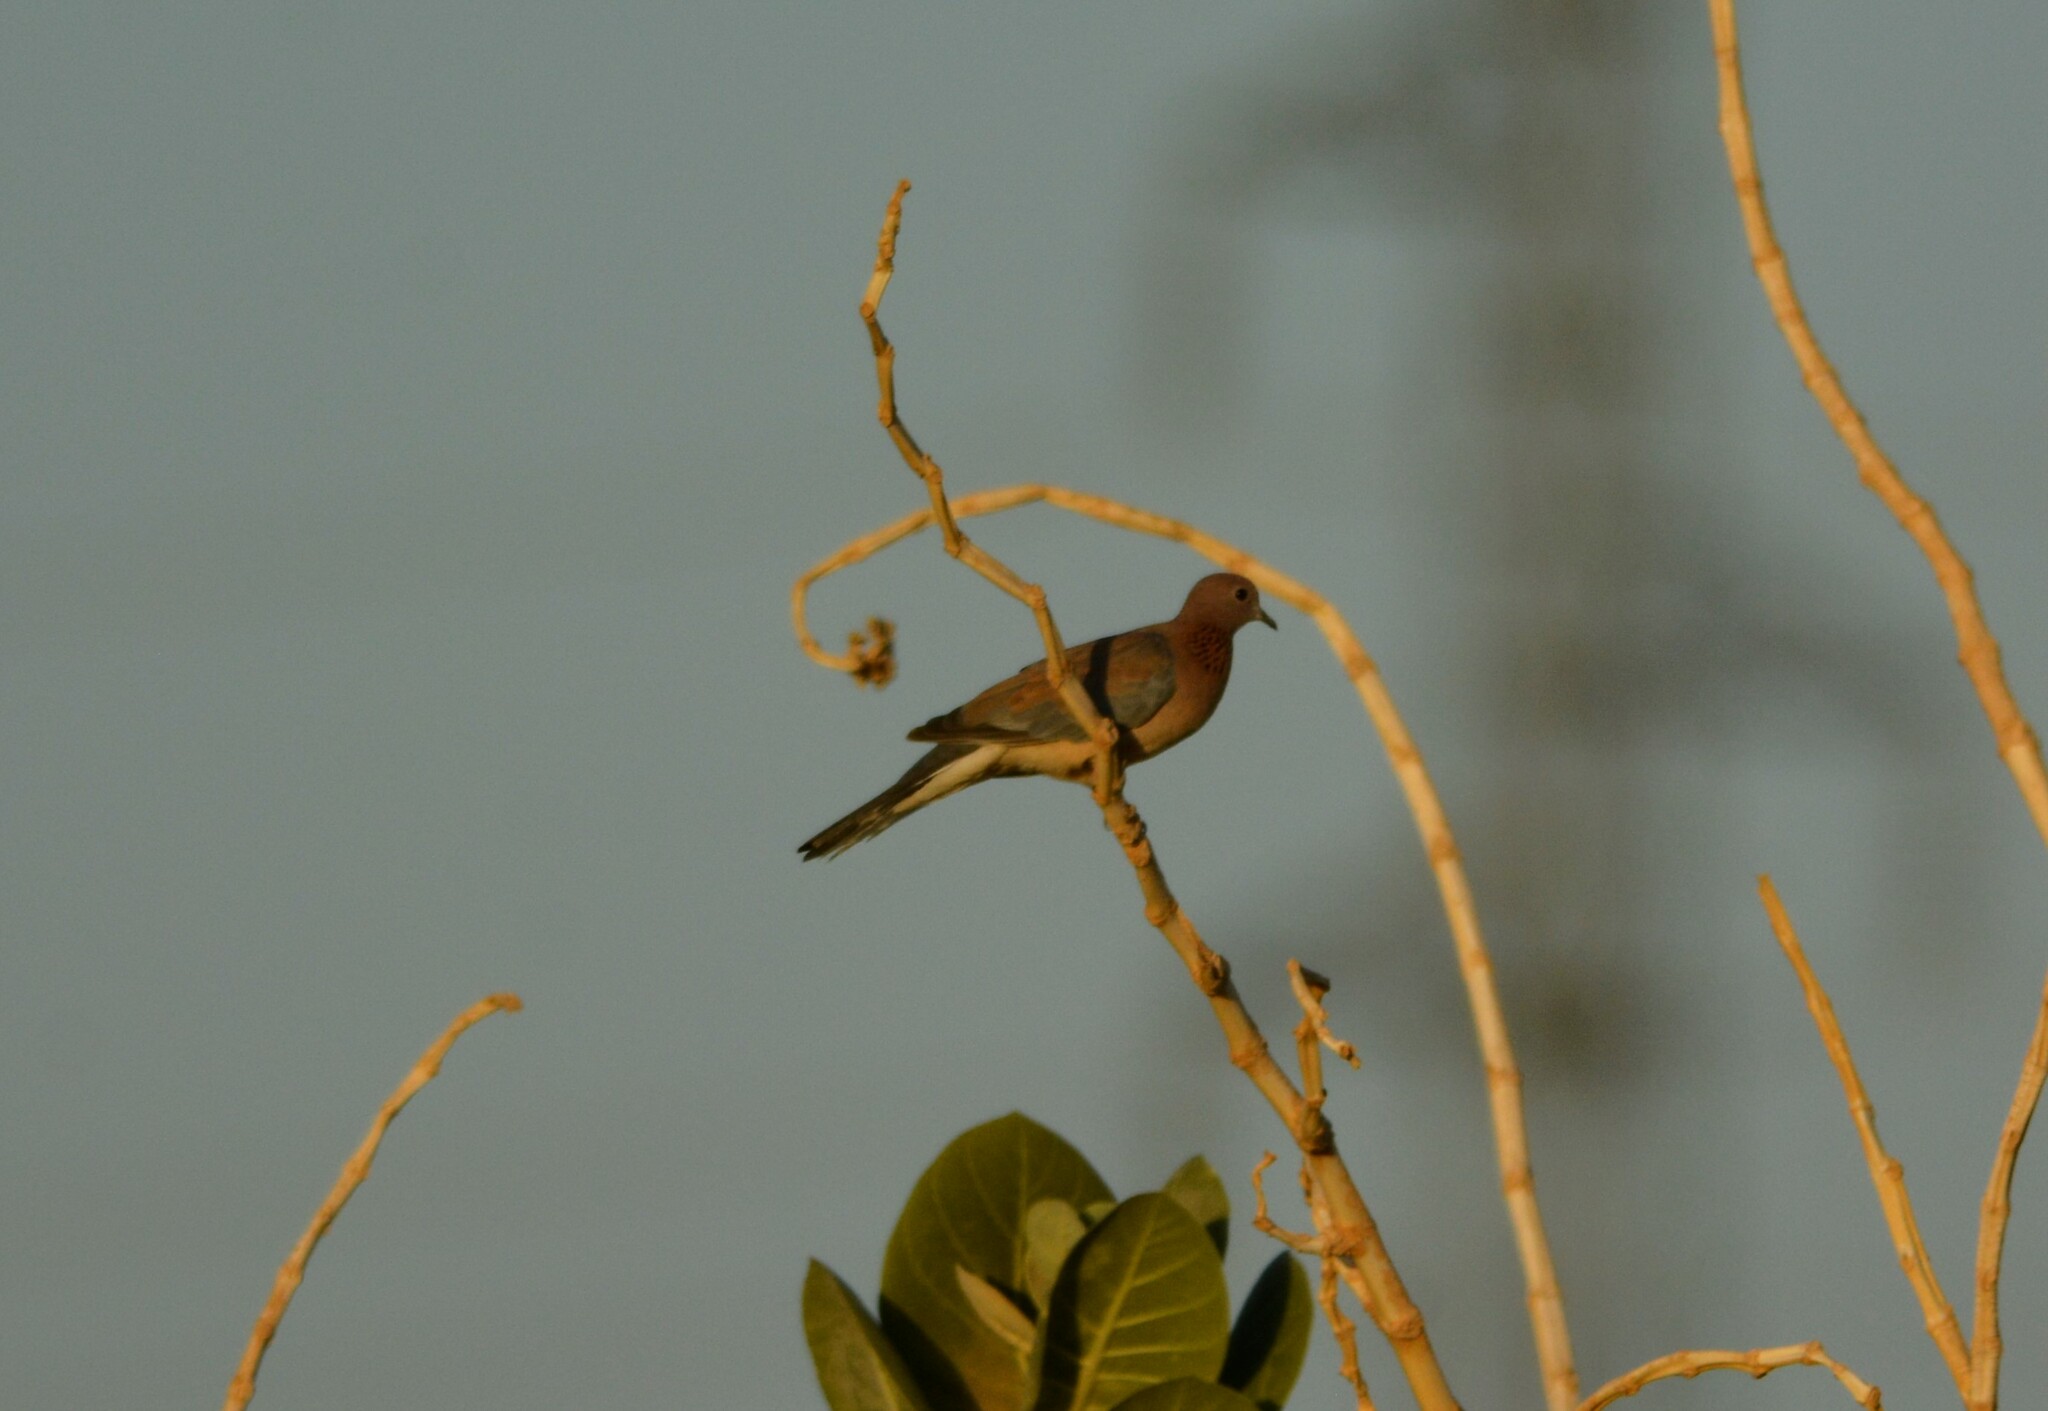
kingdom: Animalia
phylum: Chordata
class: Aves
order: Columbiformes
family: Columbidae
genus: Spilopelia
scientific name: Spilopelia senegalensis
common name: Laughing dove
